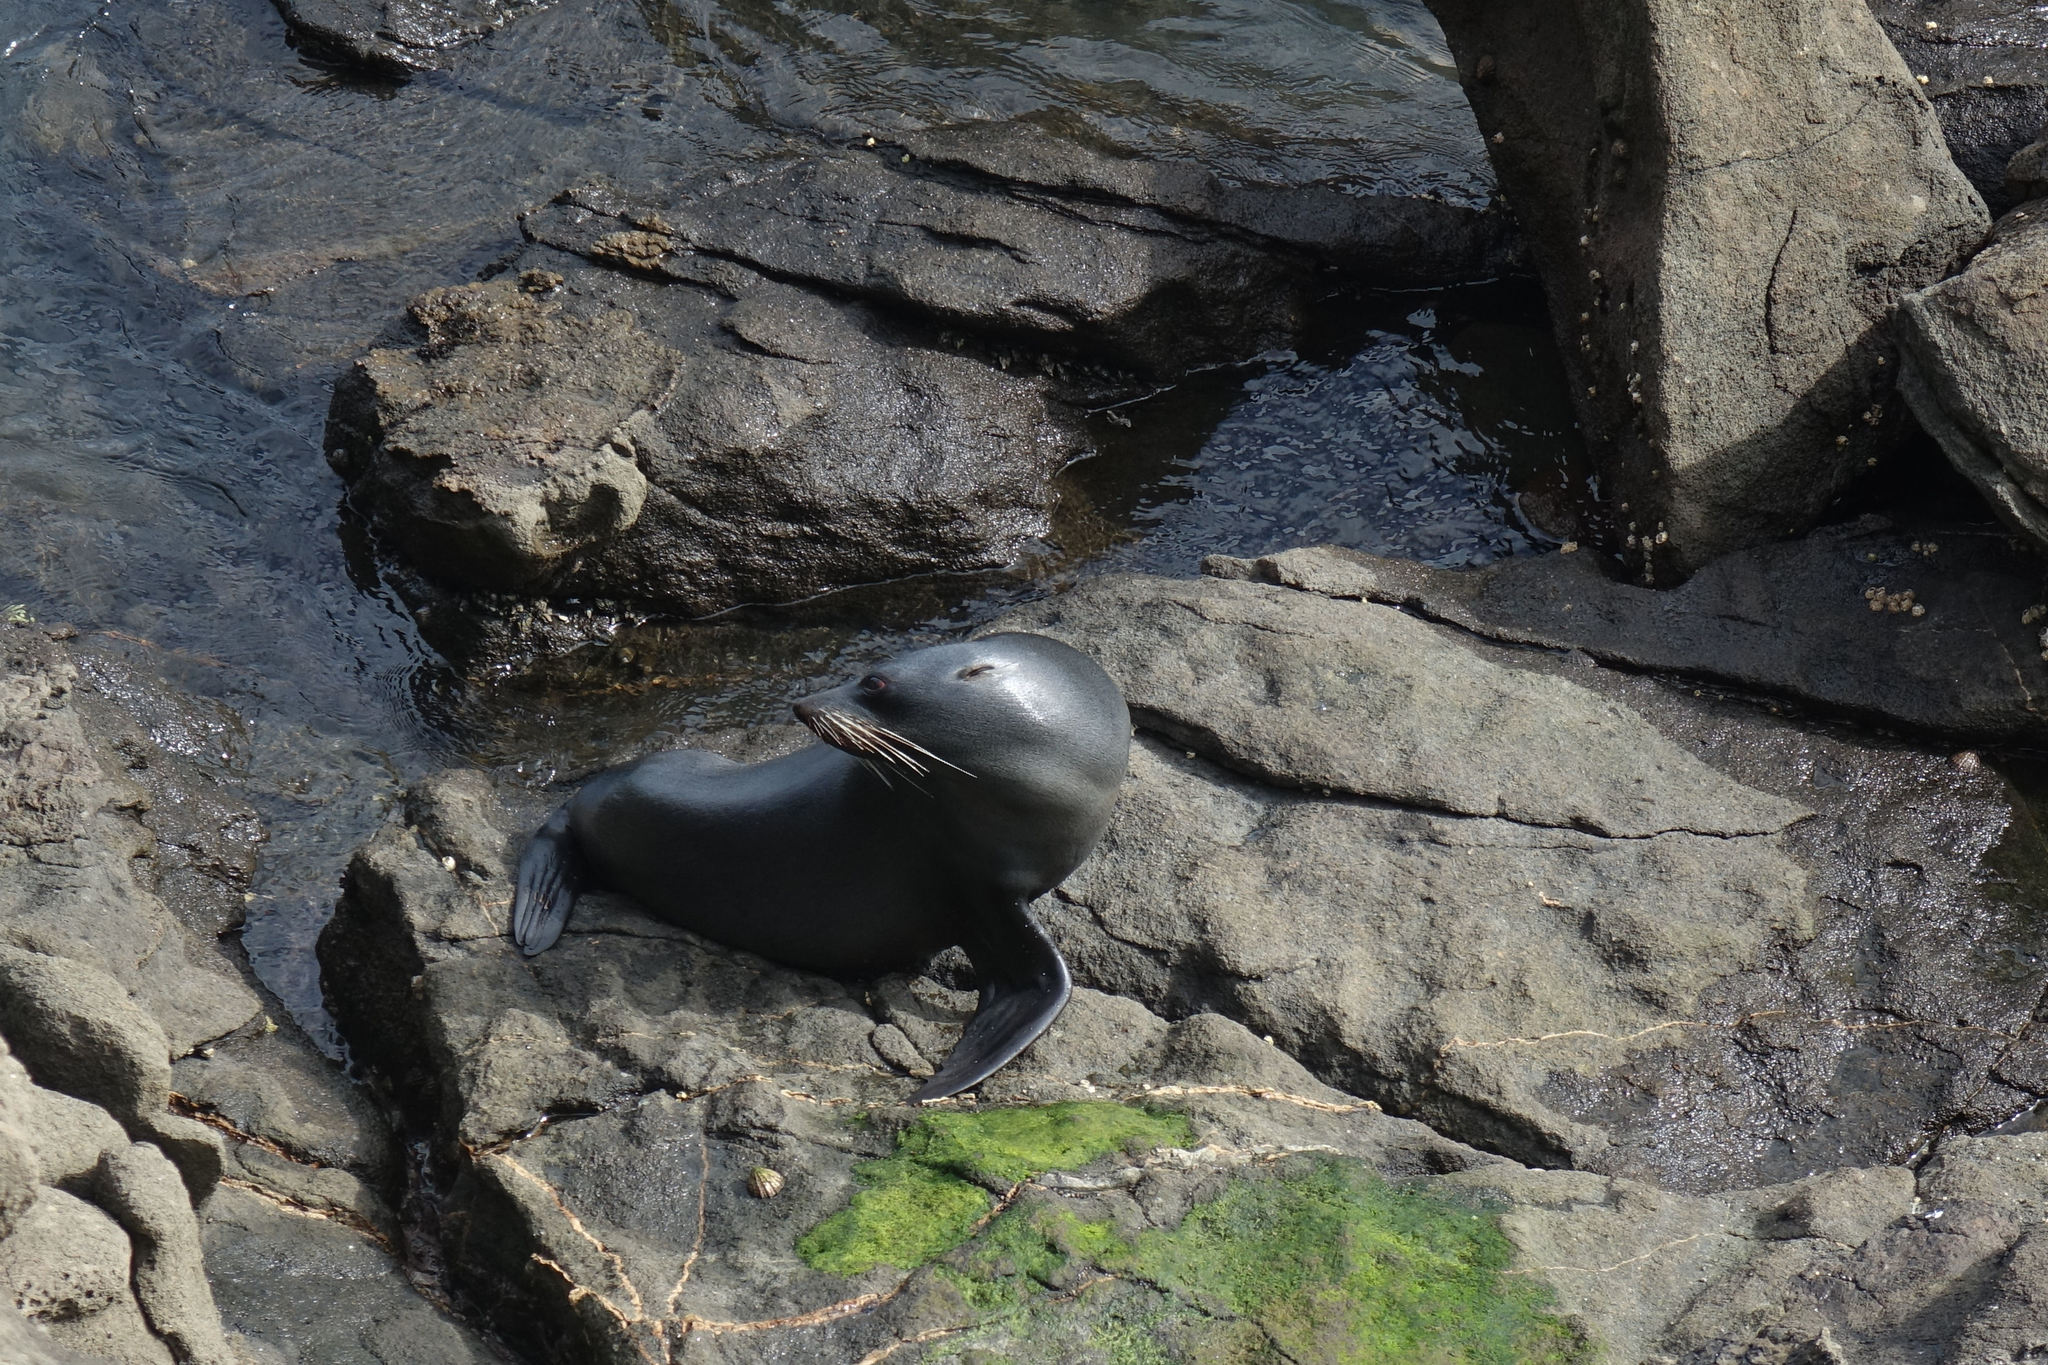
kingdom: Animalia
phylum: Chordata
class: Mammalia
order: Carnivora
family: Otariidae
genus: Arctocephalus
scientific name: Arctocephalus forsteri
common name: New zealand fur seal
